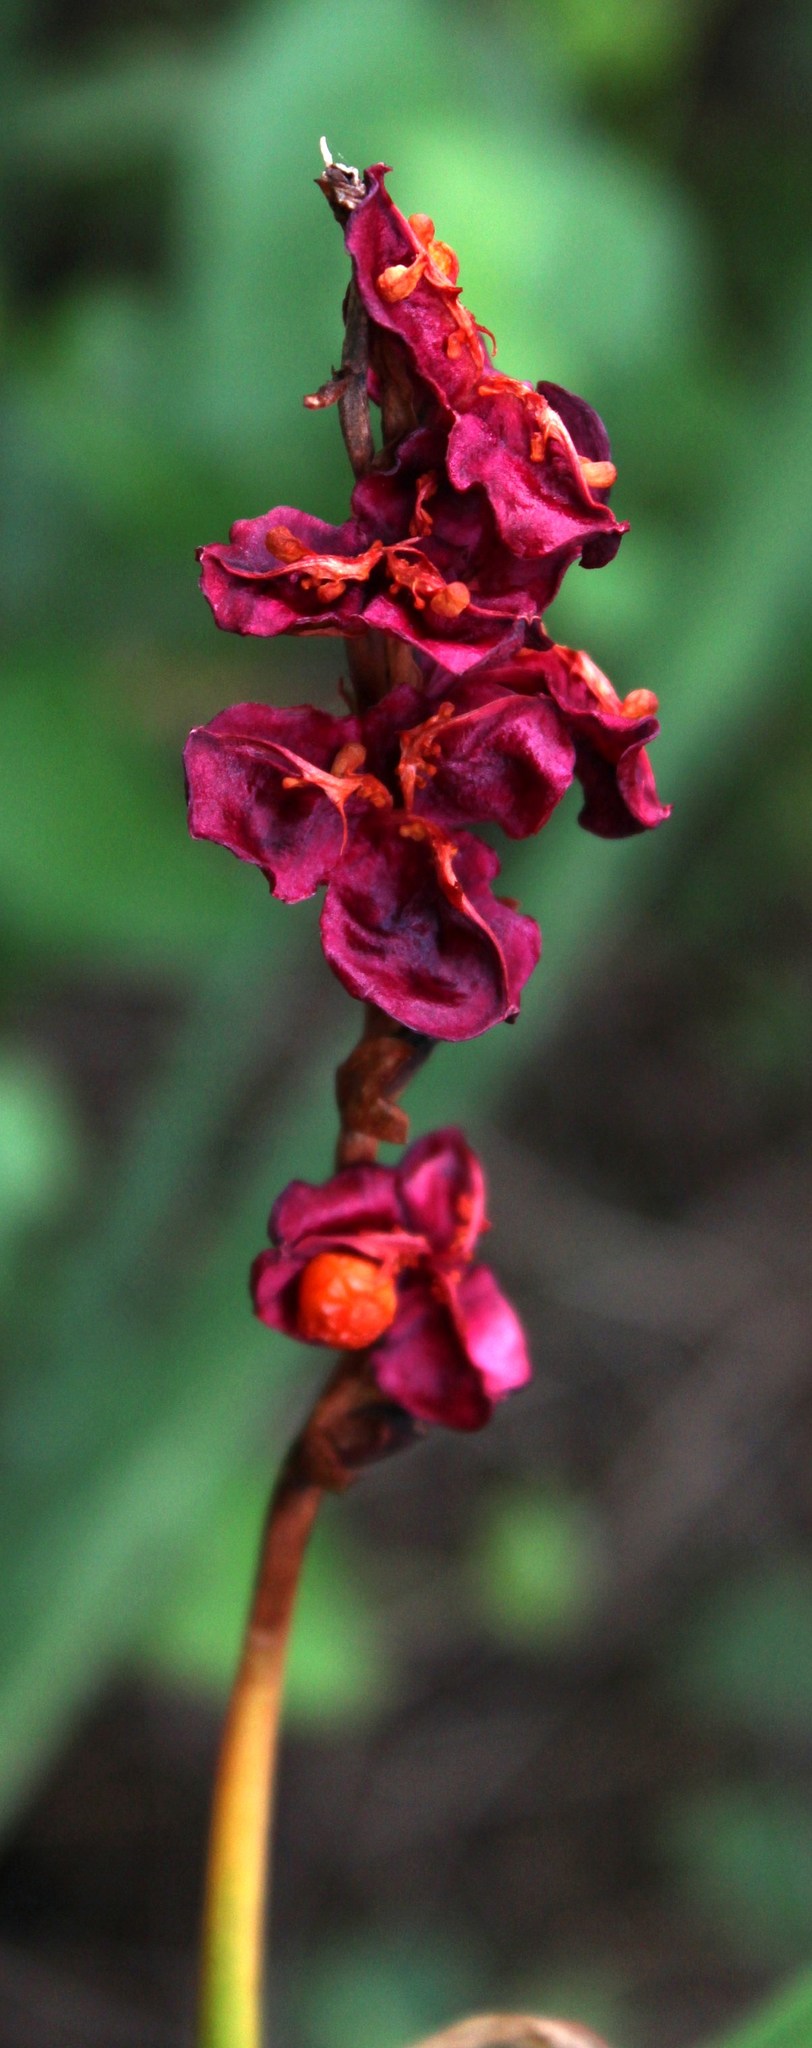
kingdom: Plantae
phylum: Tracheophyta
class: Liliopsida
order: Asparagales
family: Iridaceae
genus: Chasmanthe
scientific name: Chasmanthe aethiopica
